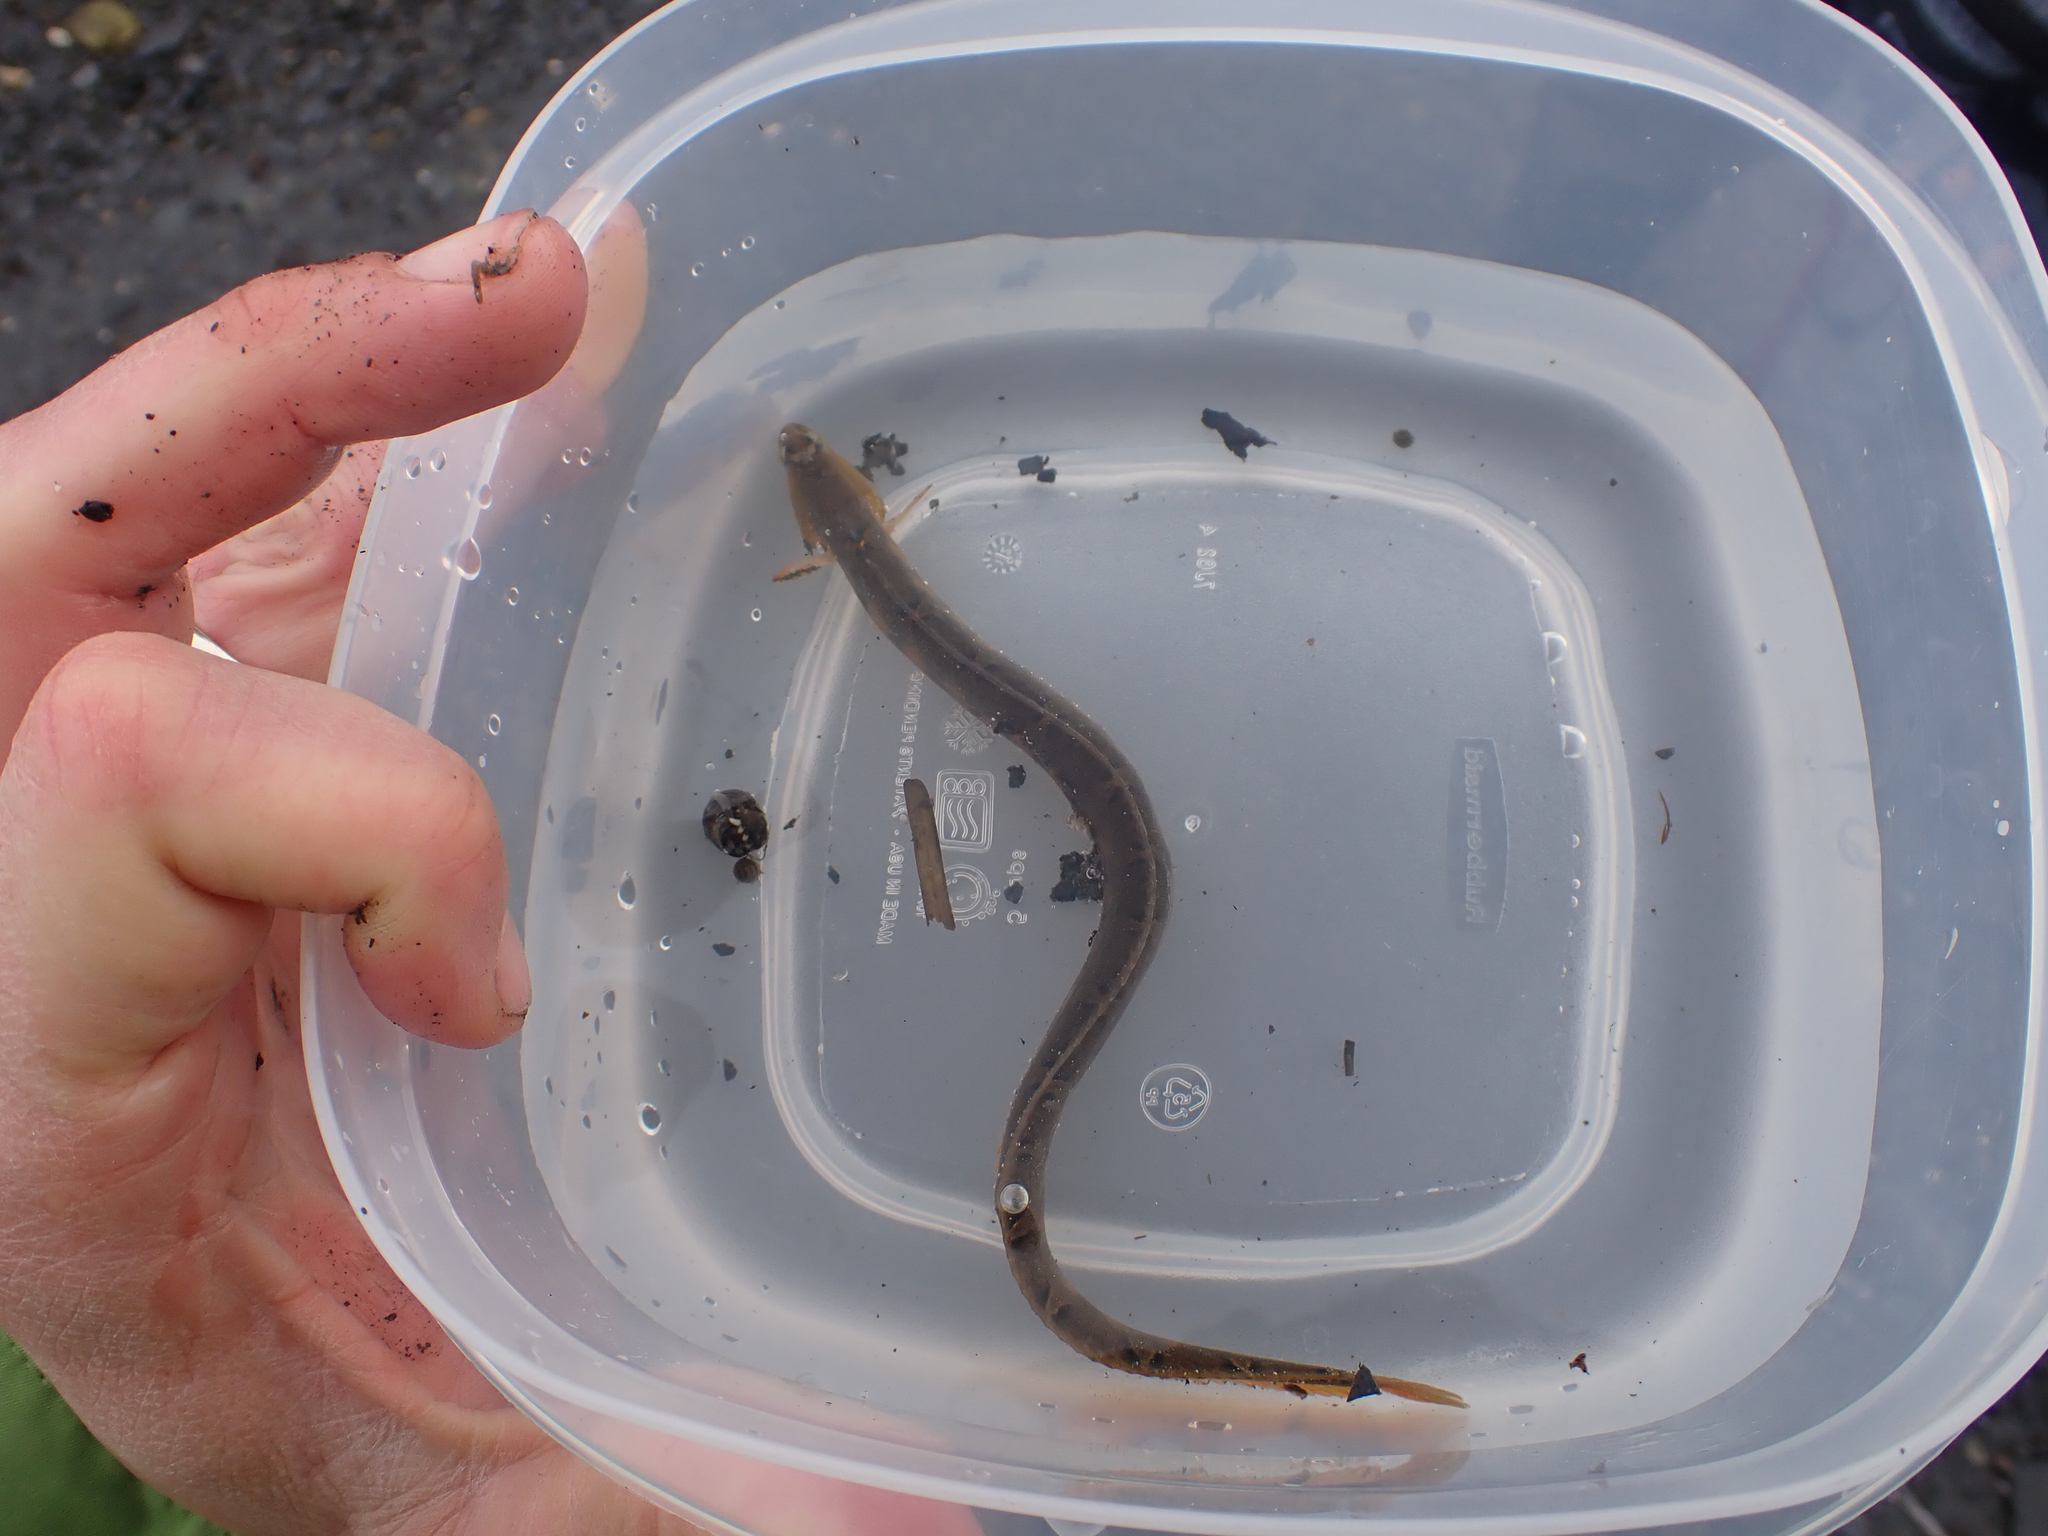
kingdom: Animalia
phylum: Chordata
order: Perciformes
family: Pholidae
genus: Pholis
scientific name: Pholis laeta
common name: Crescent gunnel
